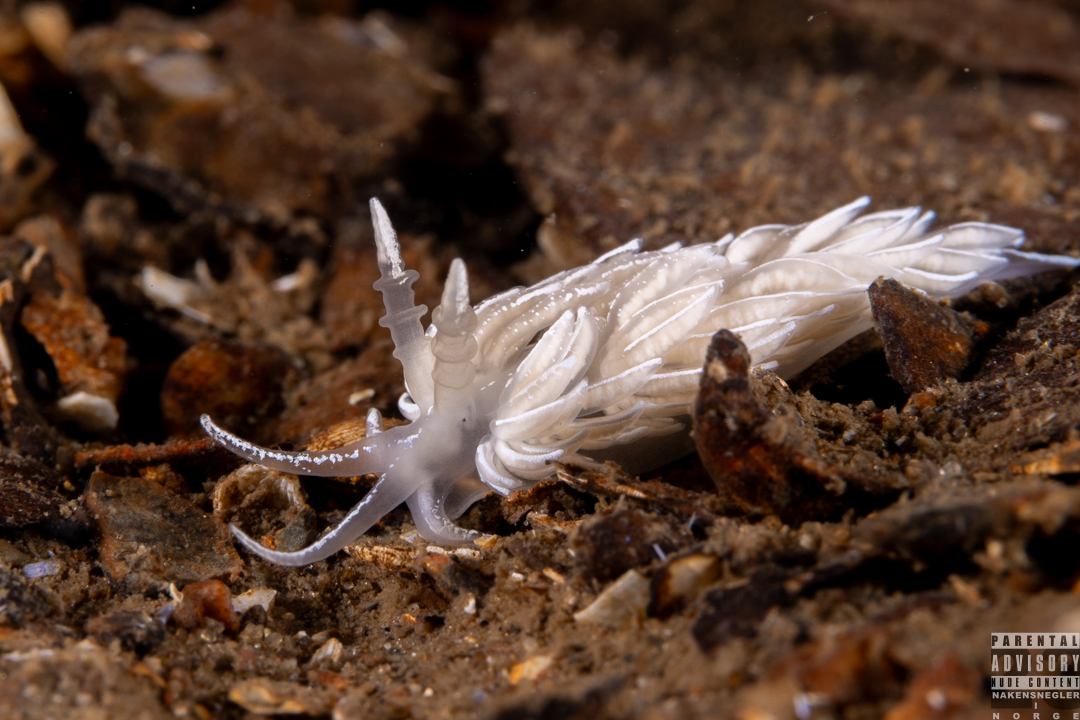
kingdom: Animalia
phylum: Mollusca
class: Gastropoda
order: Nudibranchia
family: Facelinidae
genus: Favorinus
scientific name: Favorinus blianus
